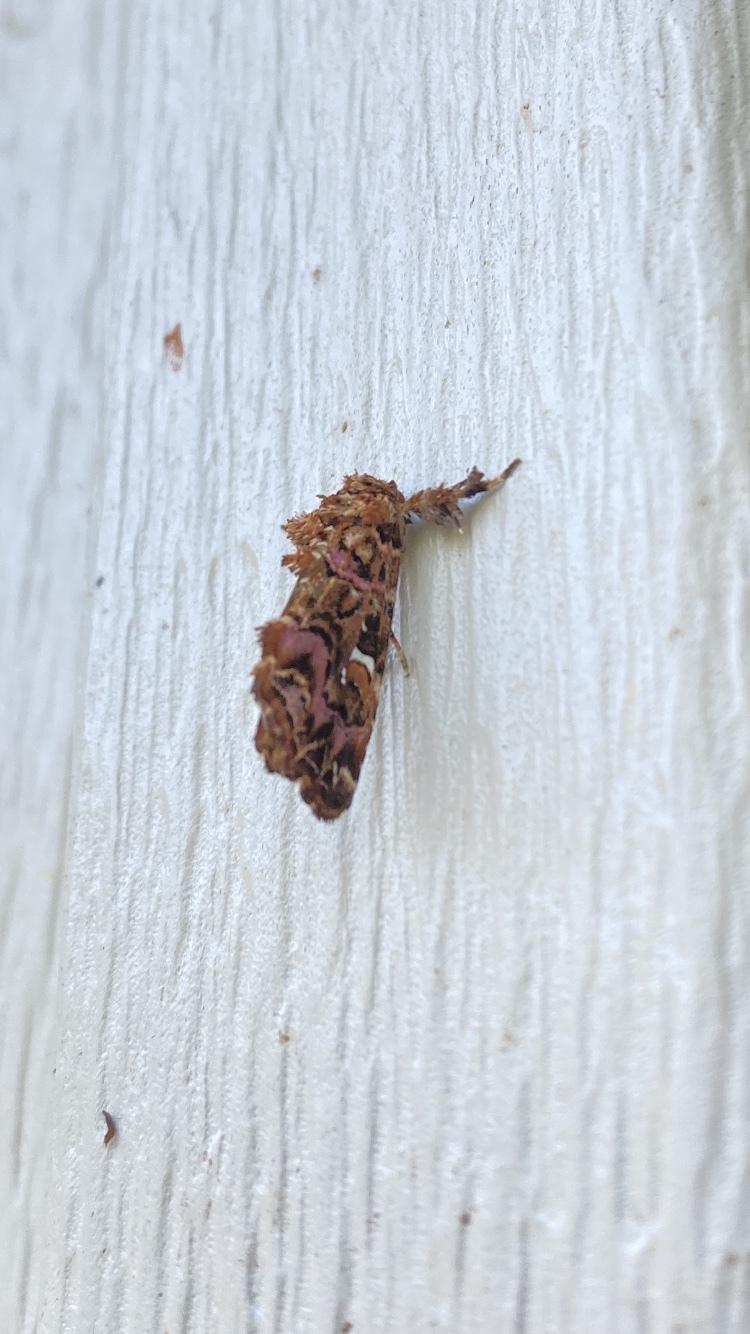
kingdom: Animalia
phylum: Arthropoda
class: Insecta
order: Lepidoptera
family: Noctuidae
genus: Callopistria
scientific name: Callopistria mollissima
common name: Pink-shaded fern moth
